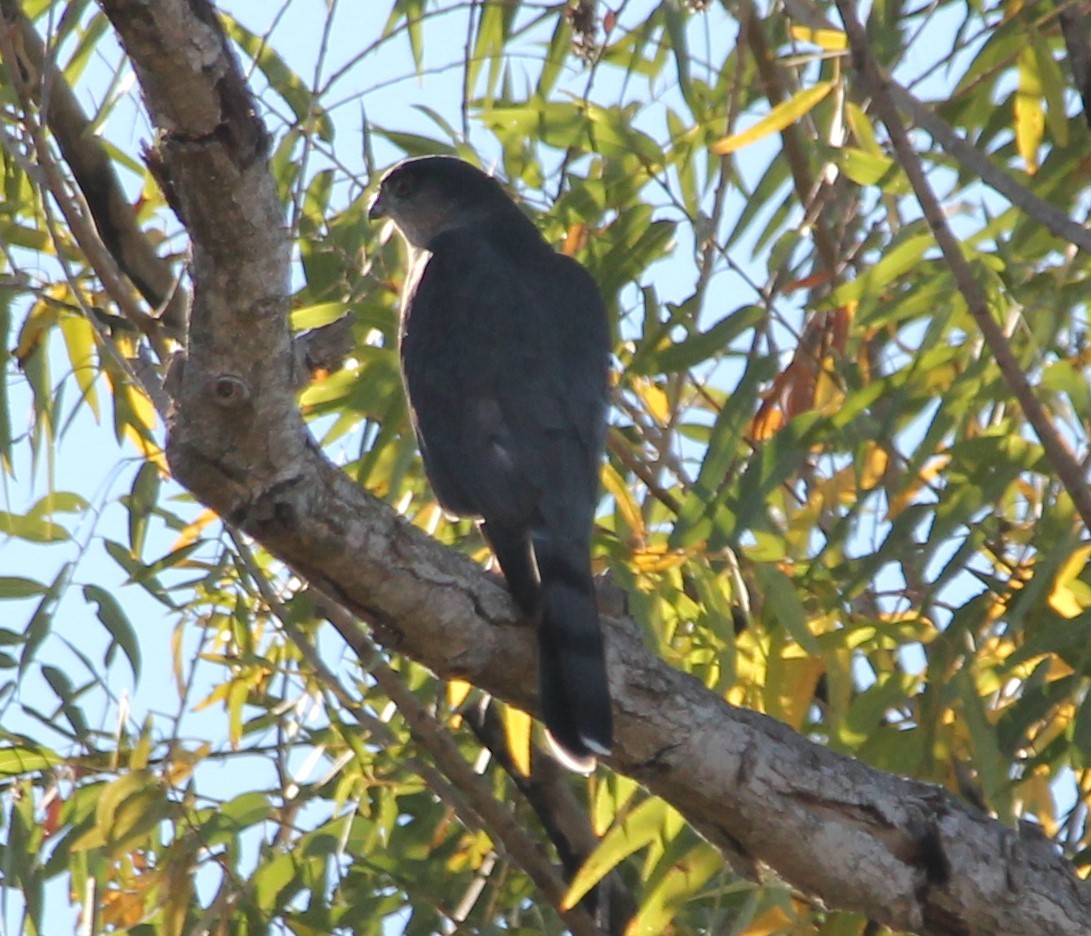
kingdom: Animalia
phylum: Chordata
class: Aves
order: Accipitriformes
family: Accipitridae
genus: Accipiter
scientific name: Accipiter striatus
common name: Sharp-shinned hawk
